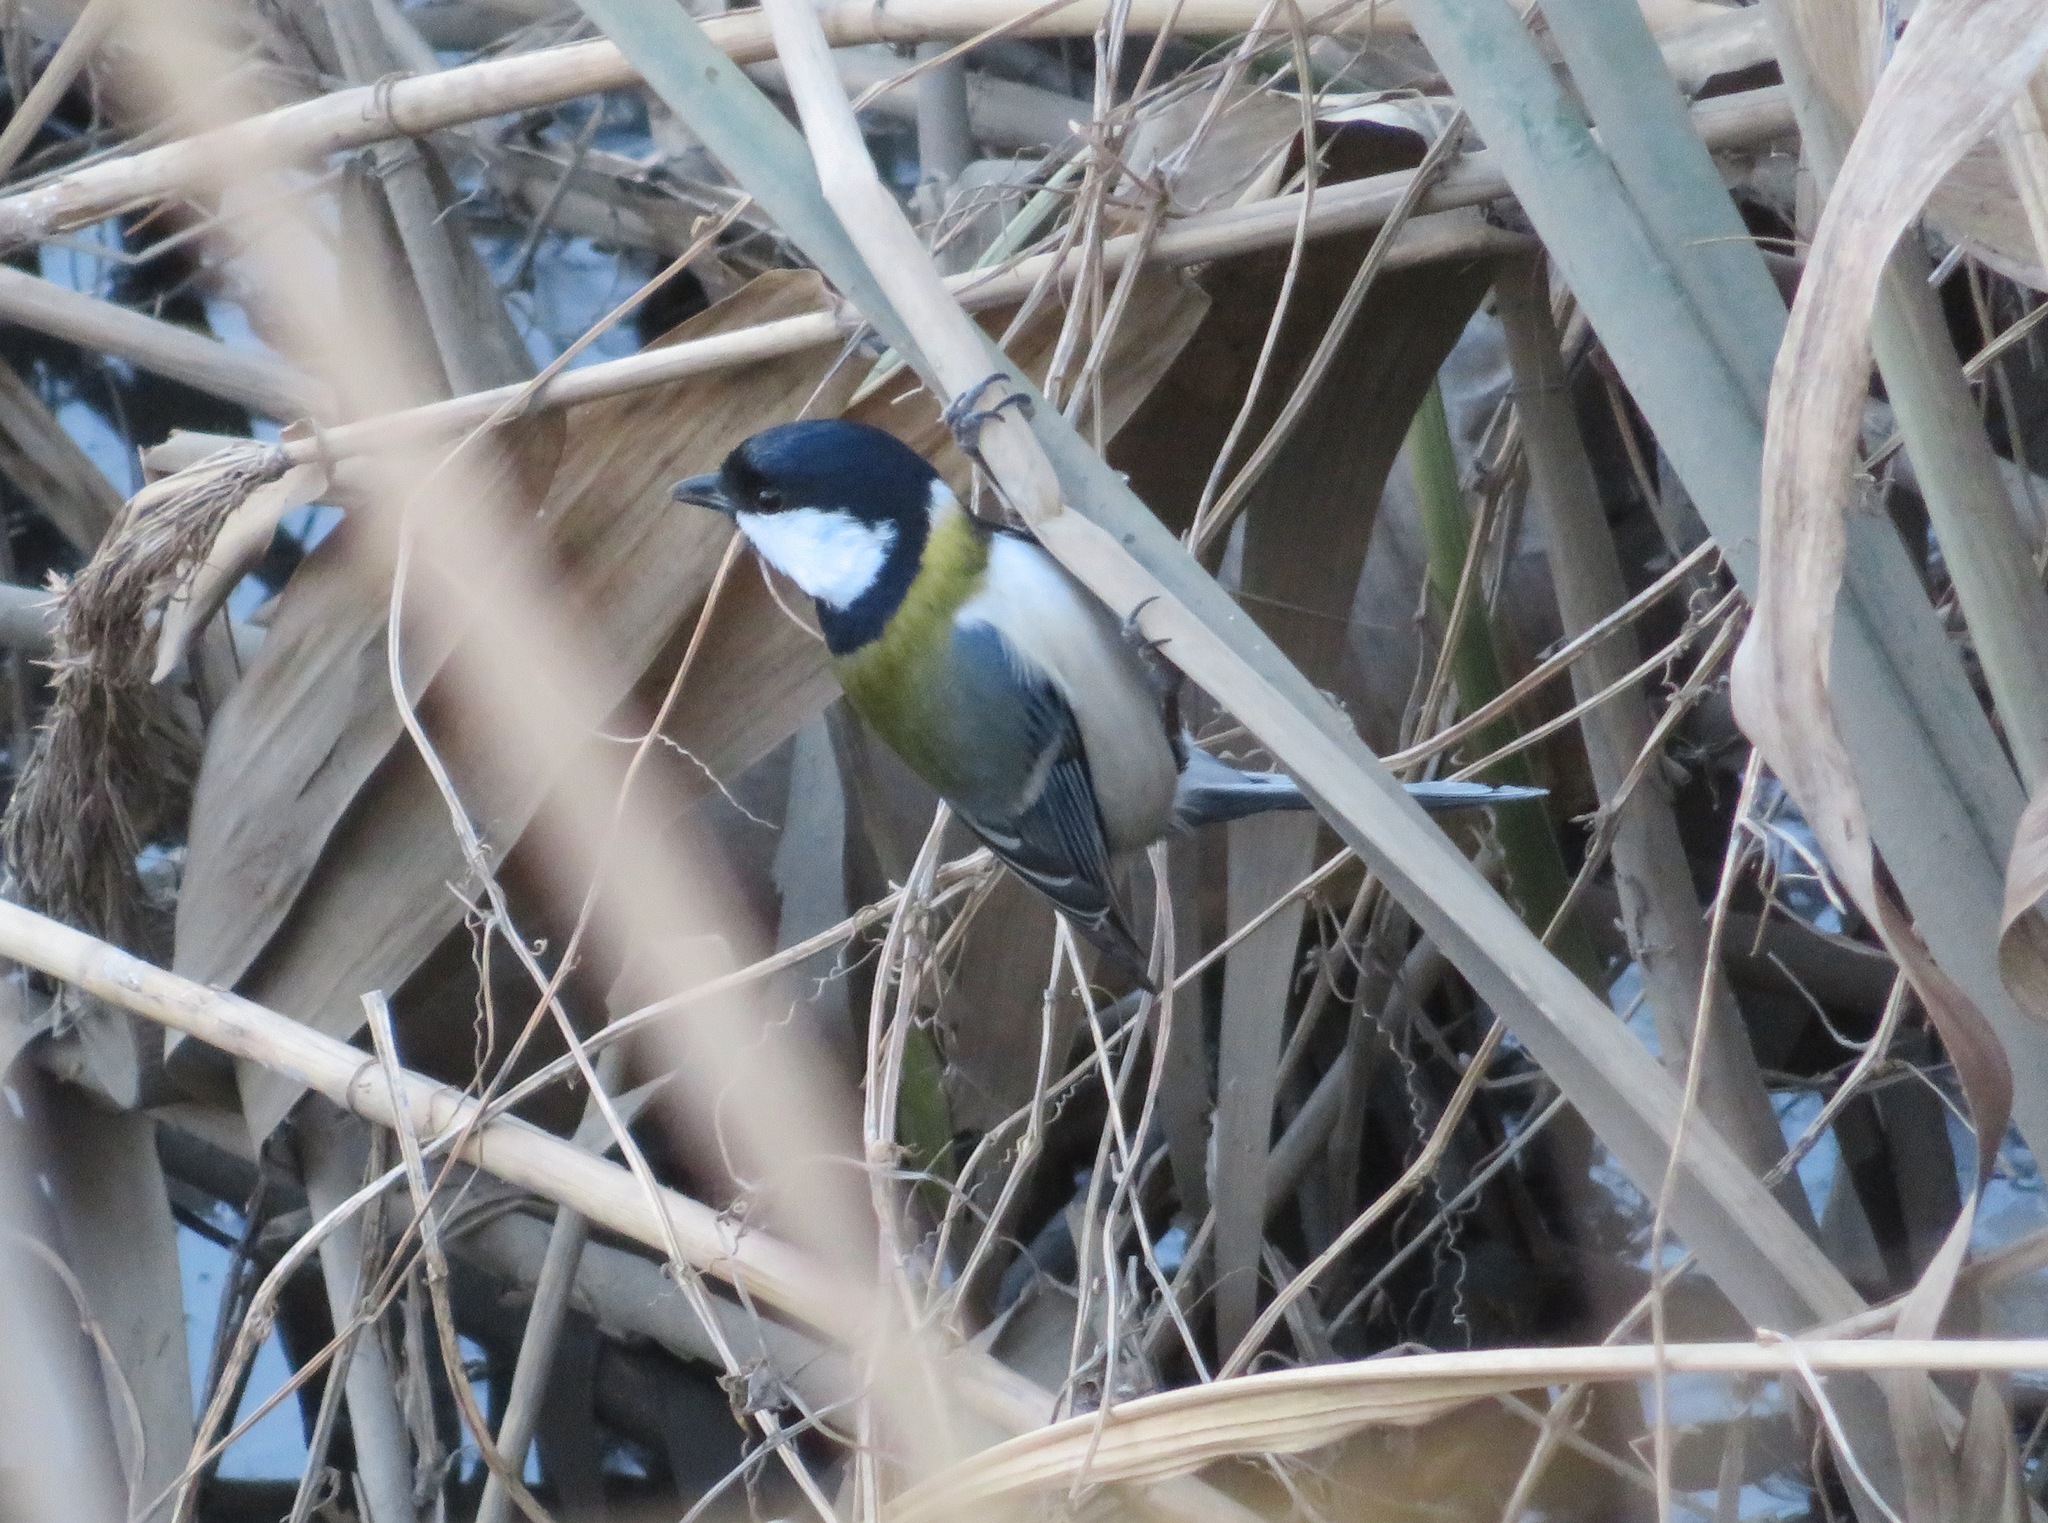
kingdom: Animalia
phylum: Chordata
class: Aves
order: Passeriformes
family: Paridae
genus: Parus
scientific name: Parus minor
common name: Japanese tit
